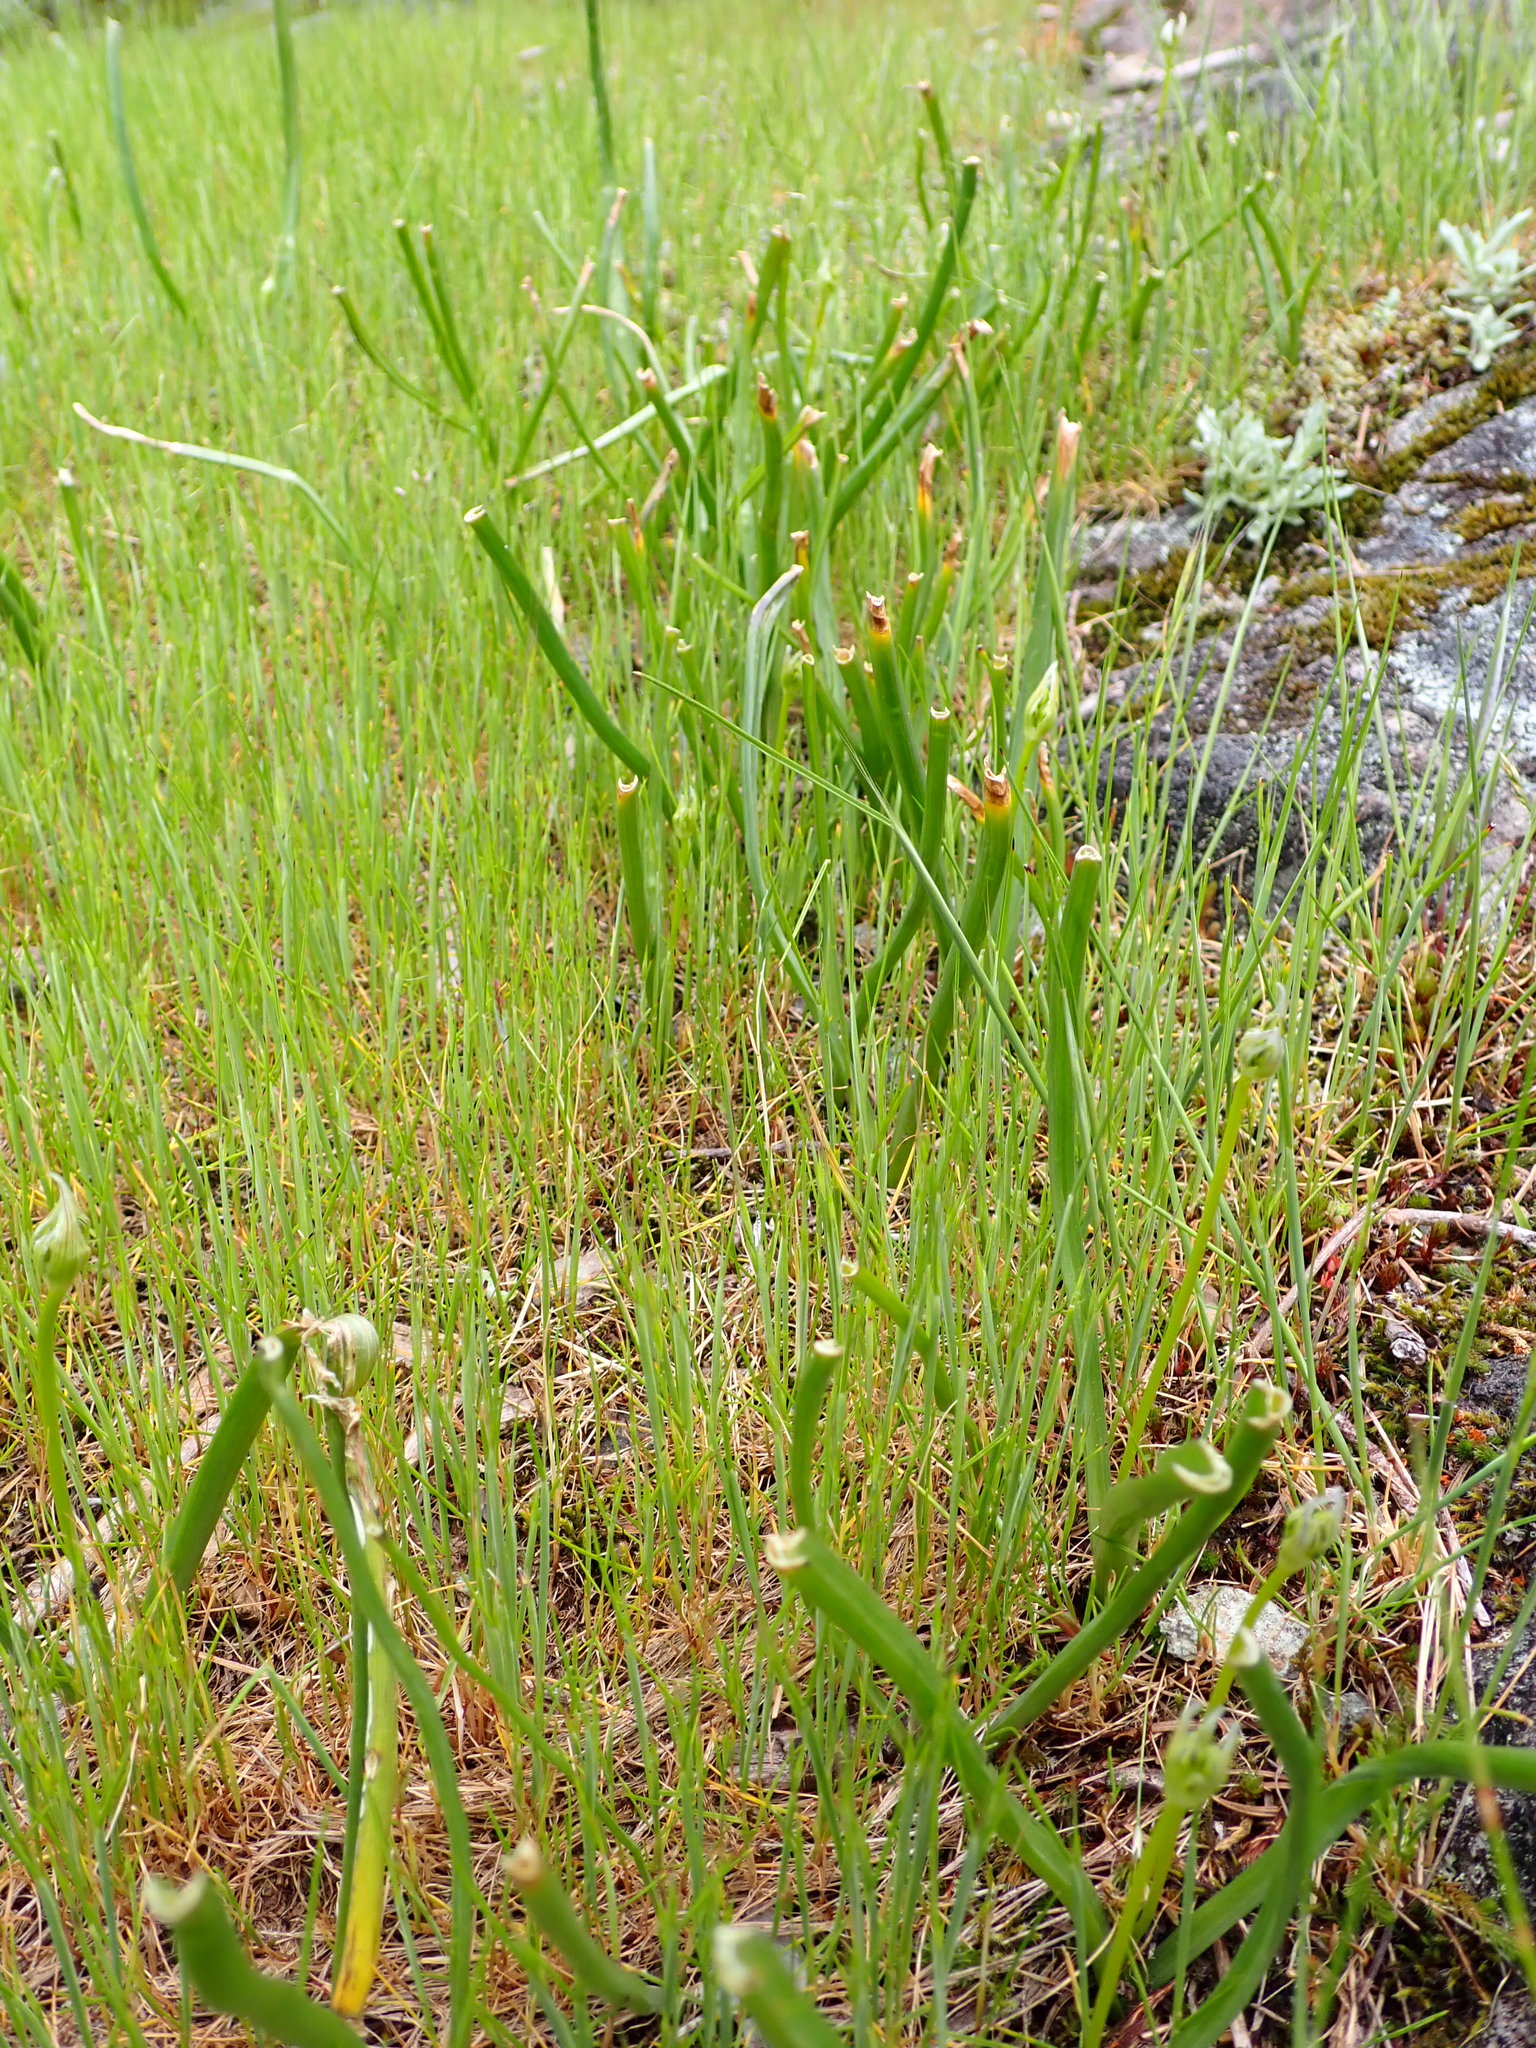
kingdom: Animalia
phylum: Chordata
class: Mammalia
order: Artiodactyla
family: Cervidae
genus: Odocoileus
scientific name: Odocoileus hemionus
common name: Mule deer
